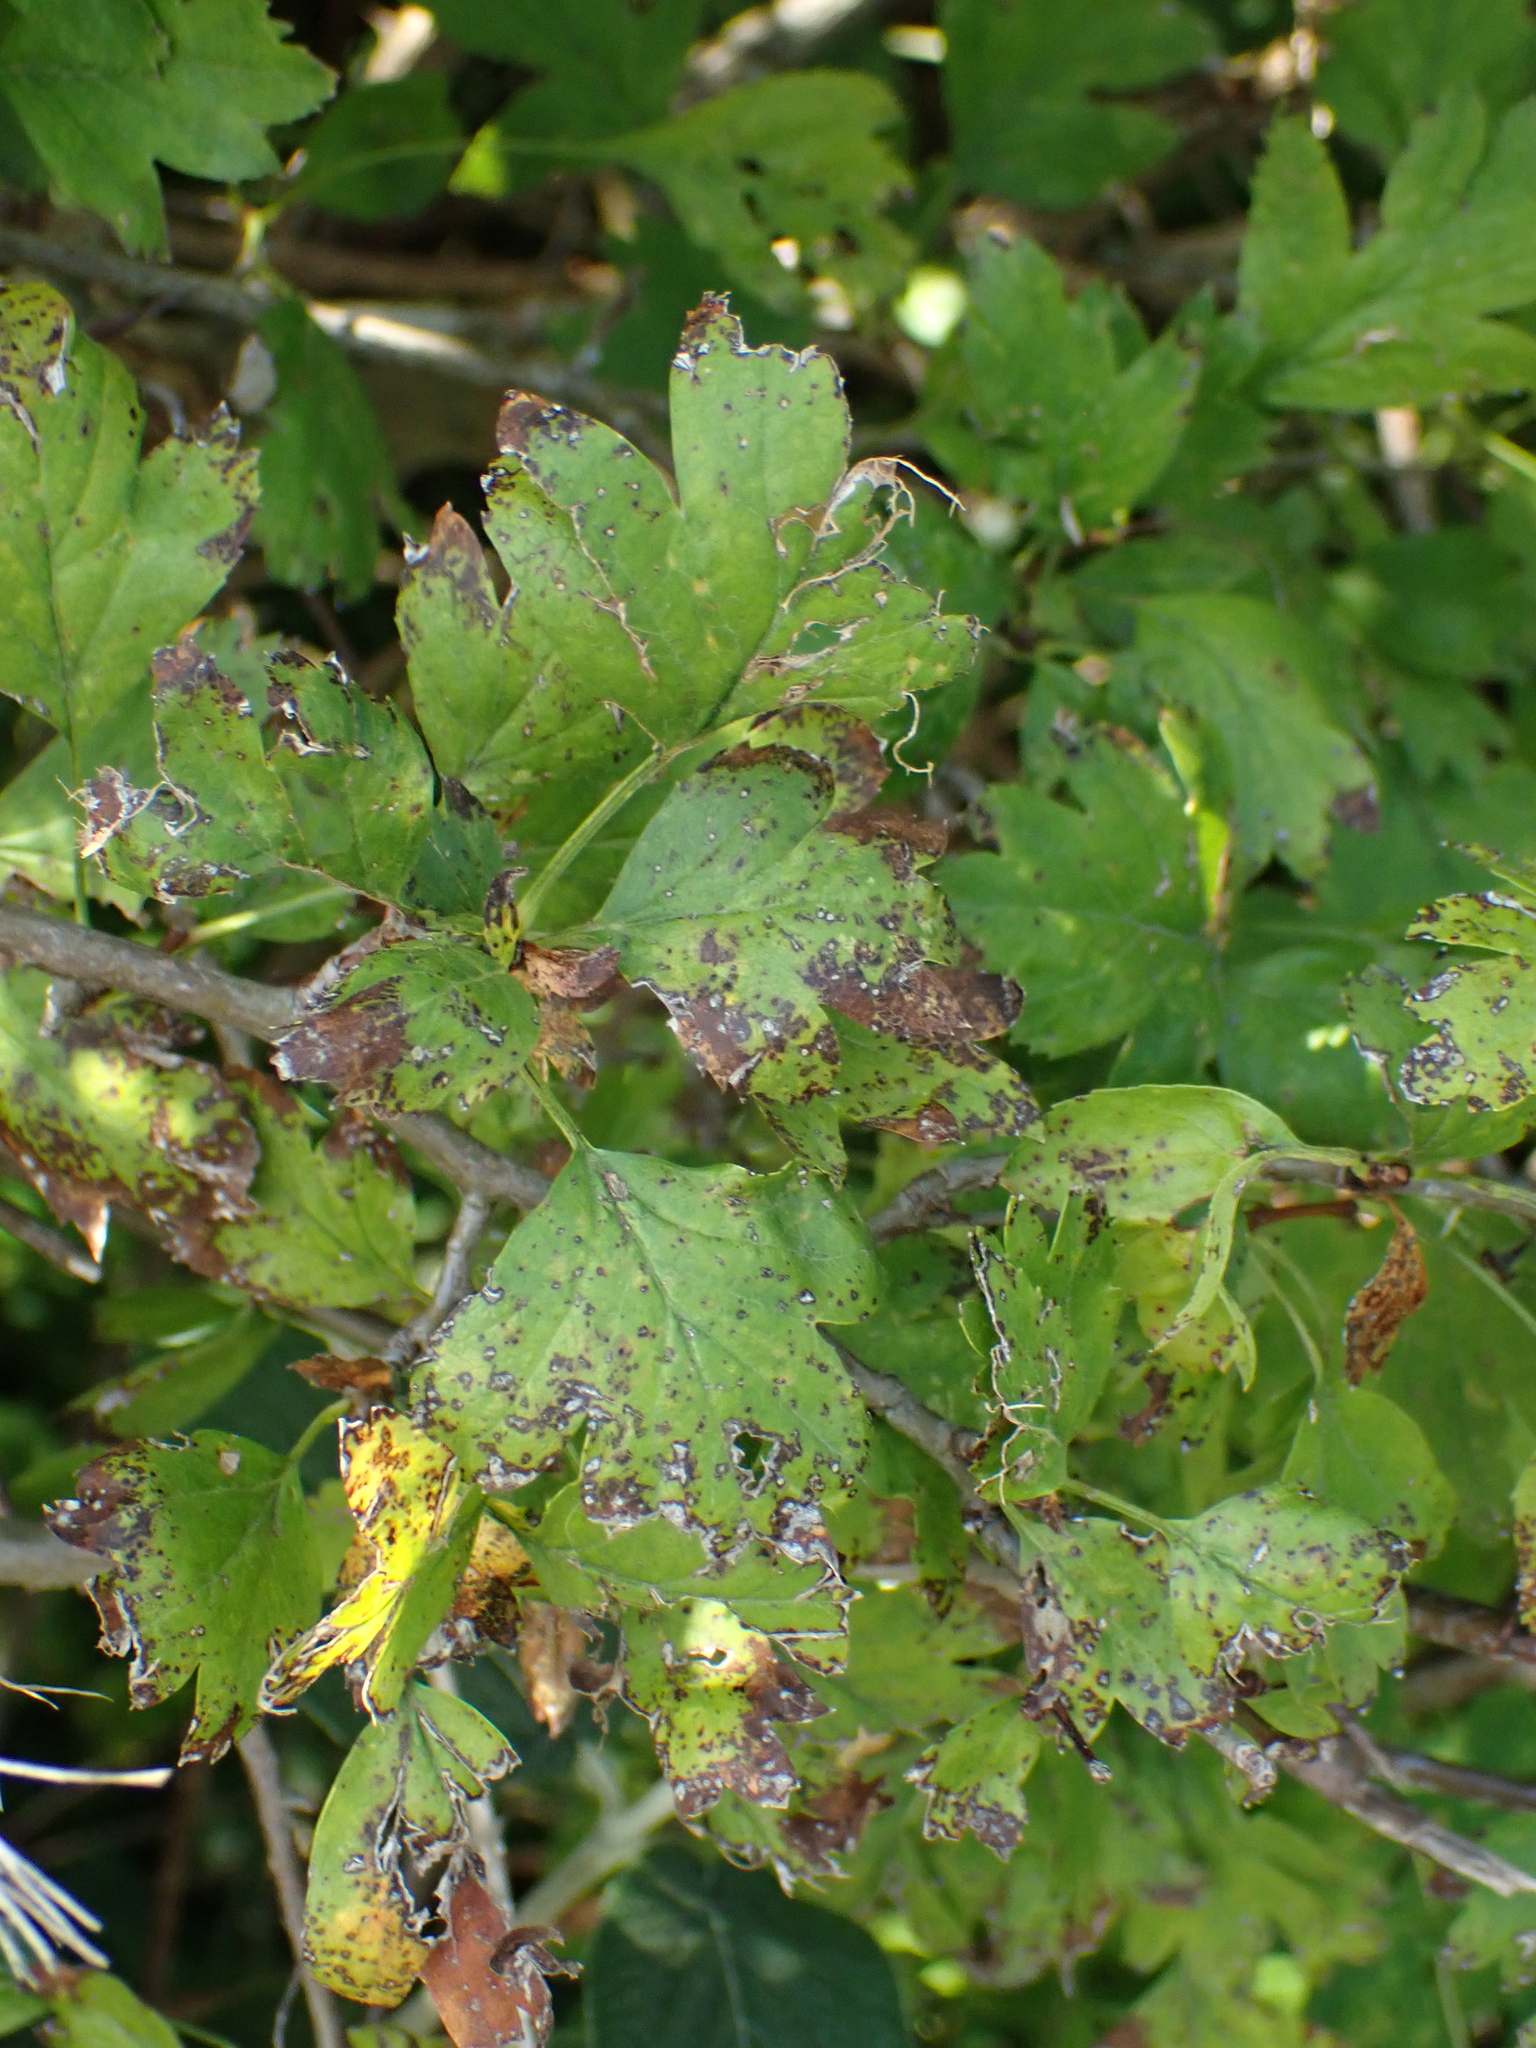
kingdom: Plantae
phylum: Tracheophyta
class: Magnoliopsida
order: Rosales
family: Rosaceae
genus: Crataegus
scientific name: Crataegus monogyna
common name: Hawthorn
